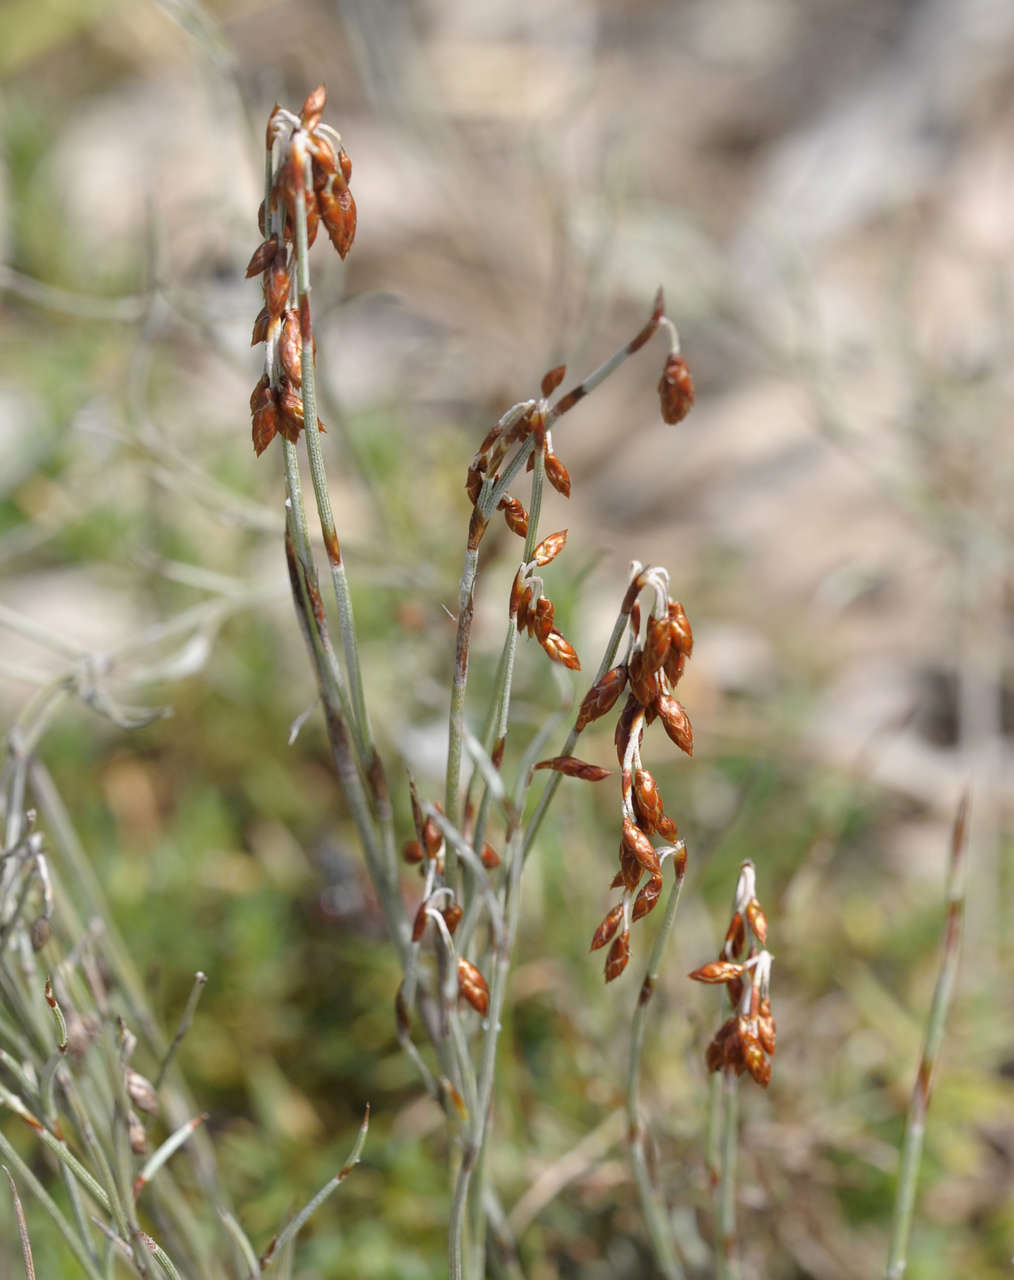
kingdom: Plantae
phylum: Tracheophyta
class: Liliopsida
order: Poales
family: Restionaceae
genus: Hypolaena
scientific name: Hypolaena fastigiata
